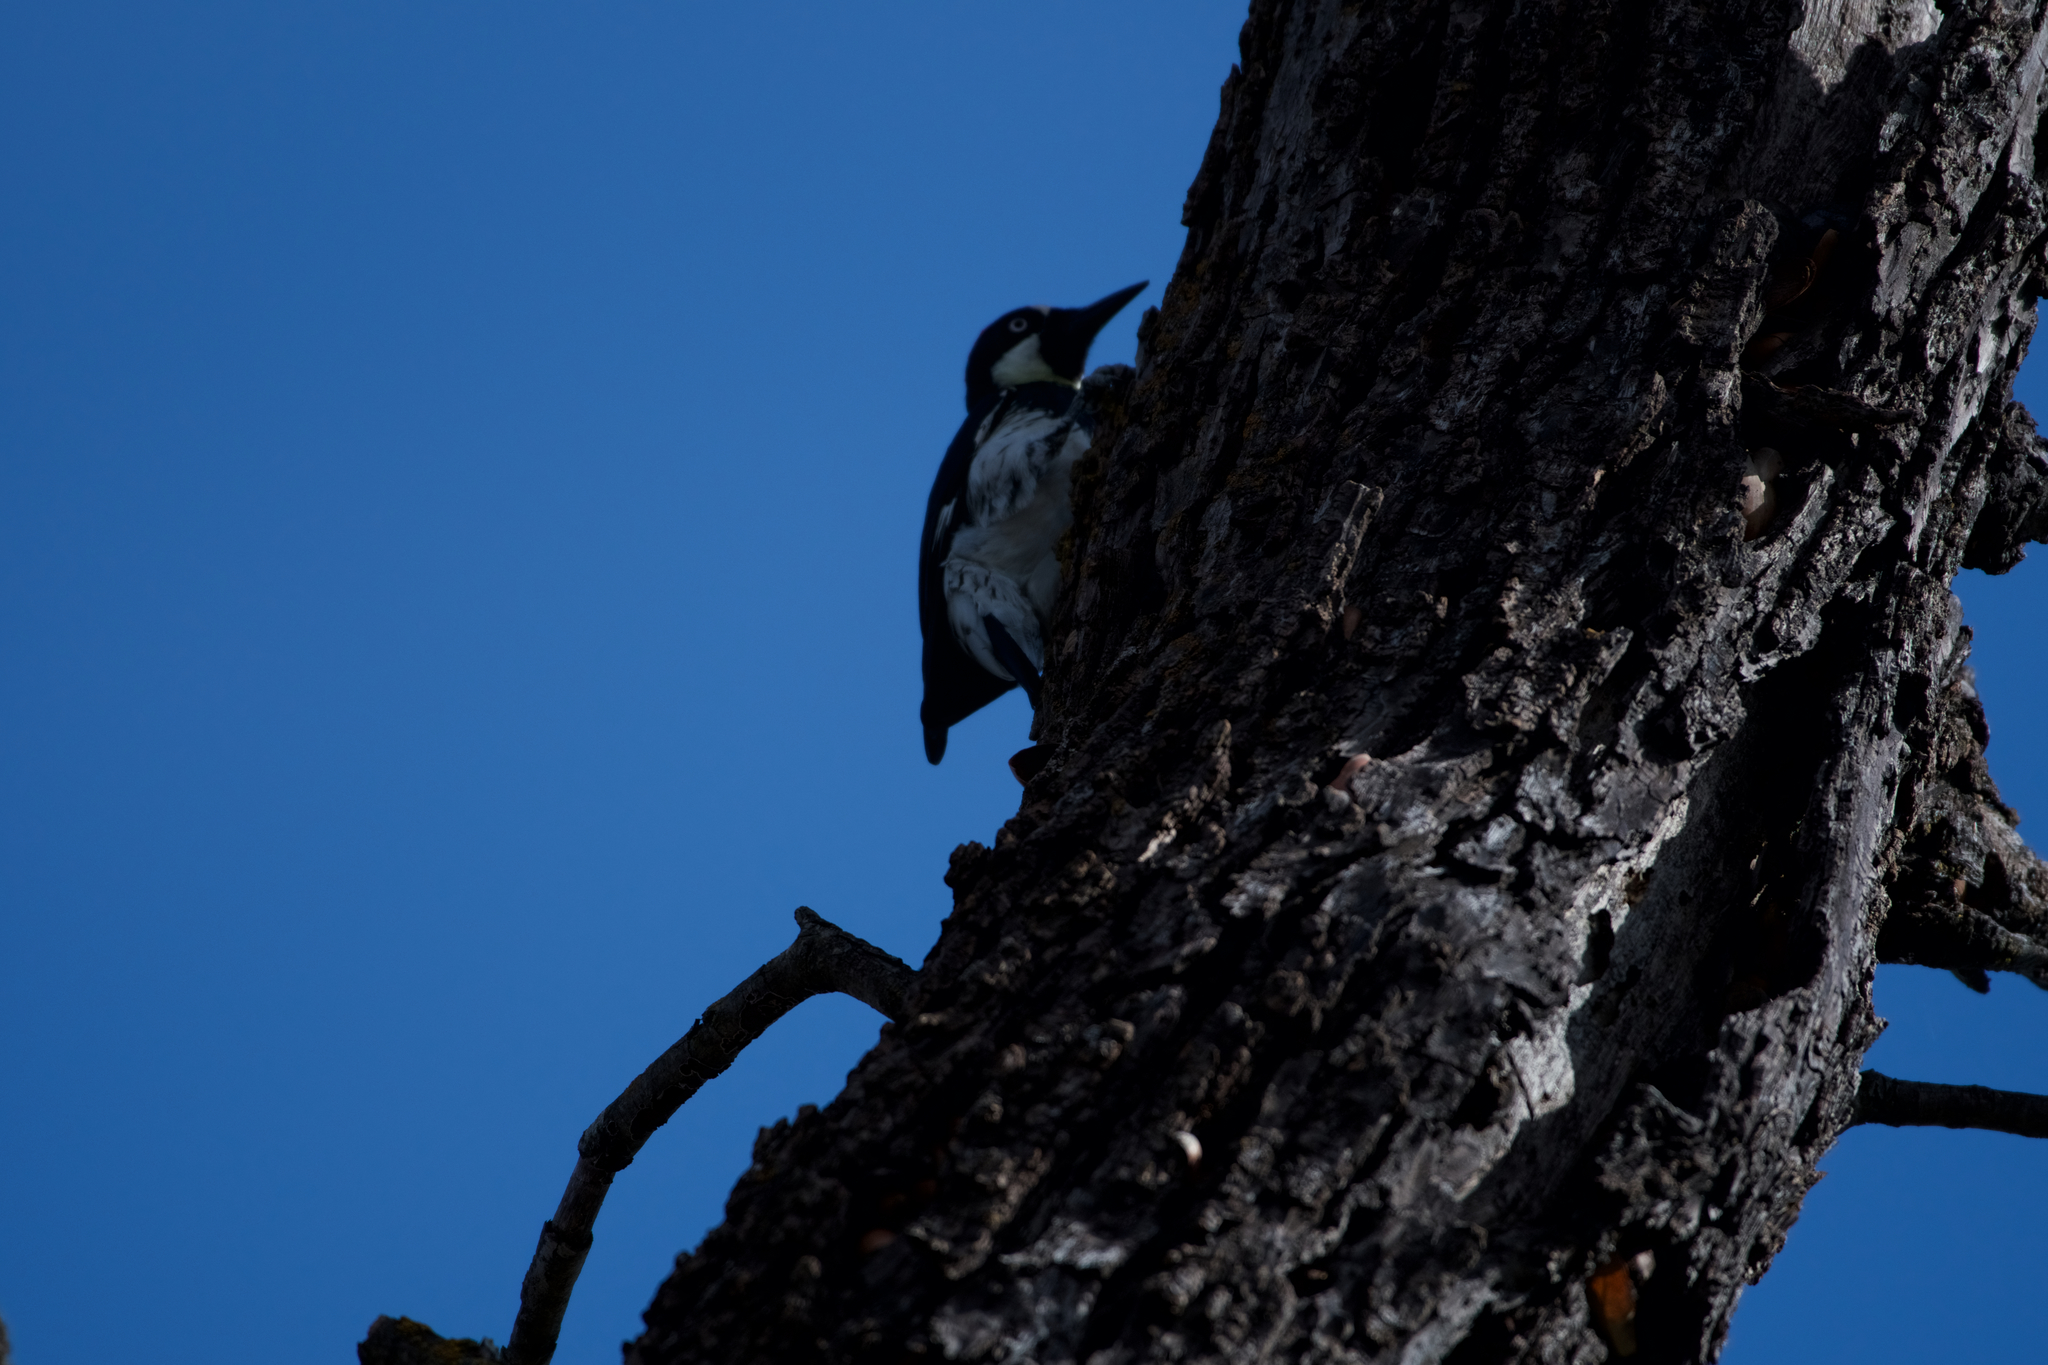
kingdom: Animalia
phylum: Chordata
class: Aves
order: Piciformes
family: Picidae
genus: Melanerpes
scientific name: Melanerpes formicivorus
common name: Acorn woodpecker
